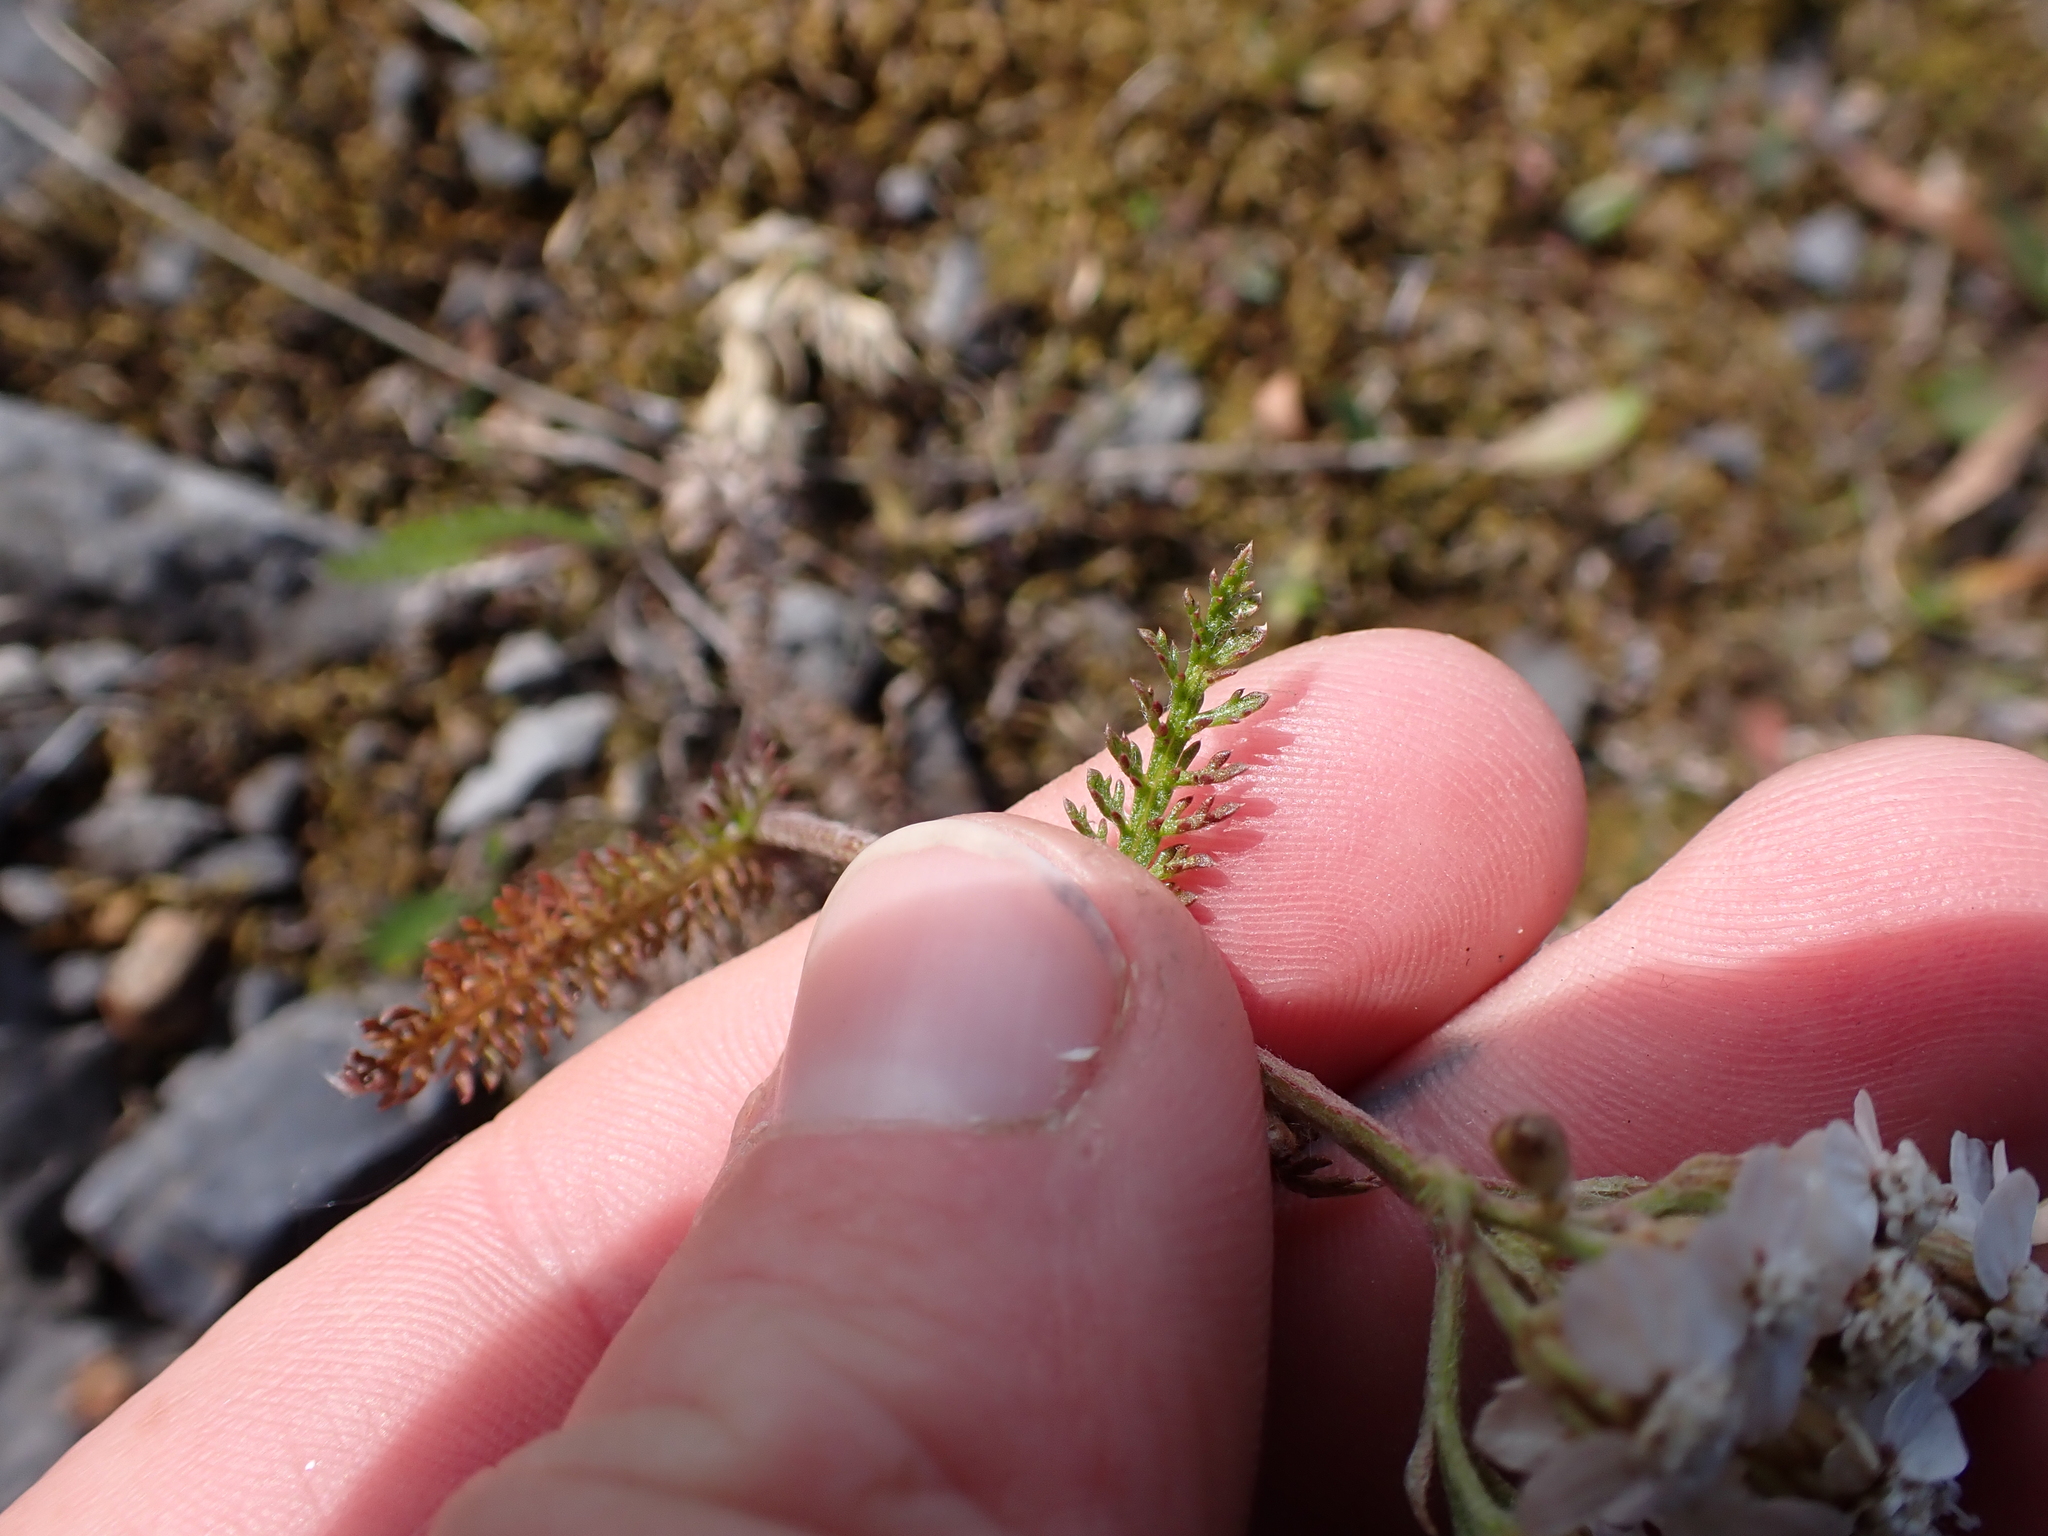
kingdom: Plantae
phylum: Tracheophyta
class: Magnoliopsida
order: Asterales
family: Asteraceae
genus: Achillea
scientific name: Achillea millefolium
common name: Yarrow
